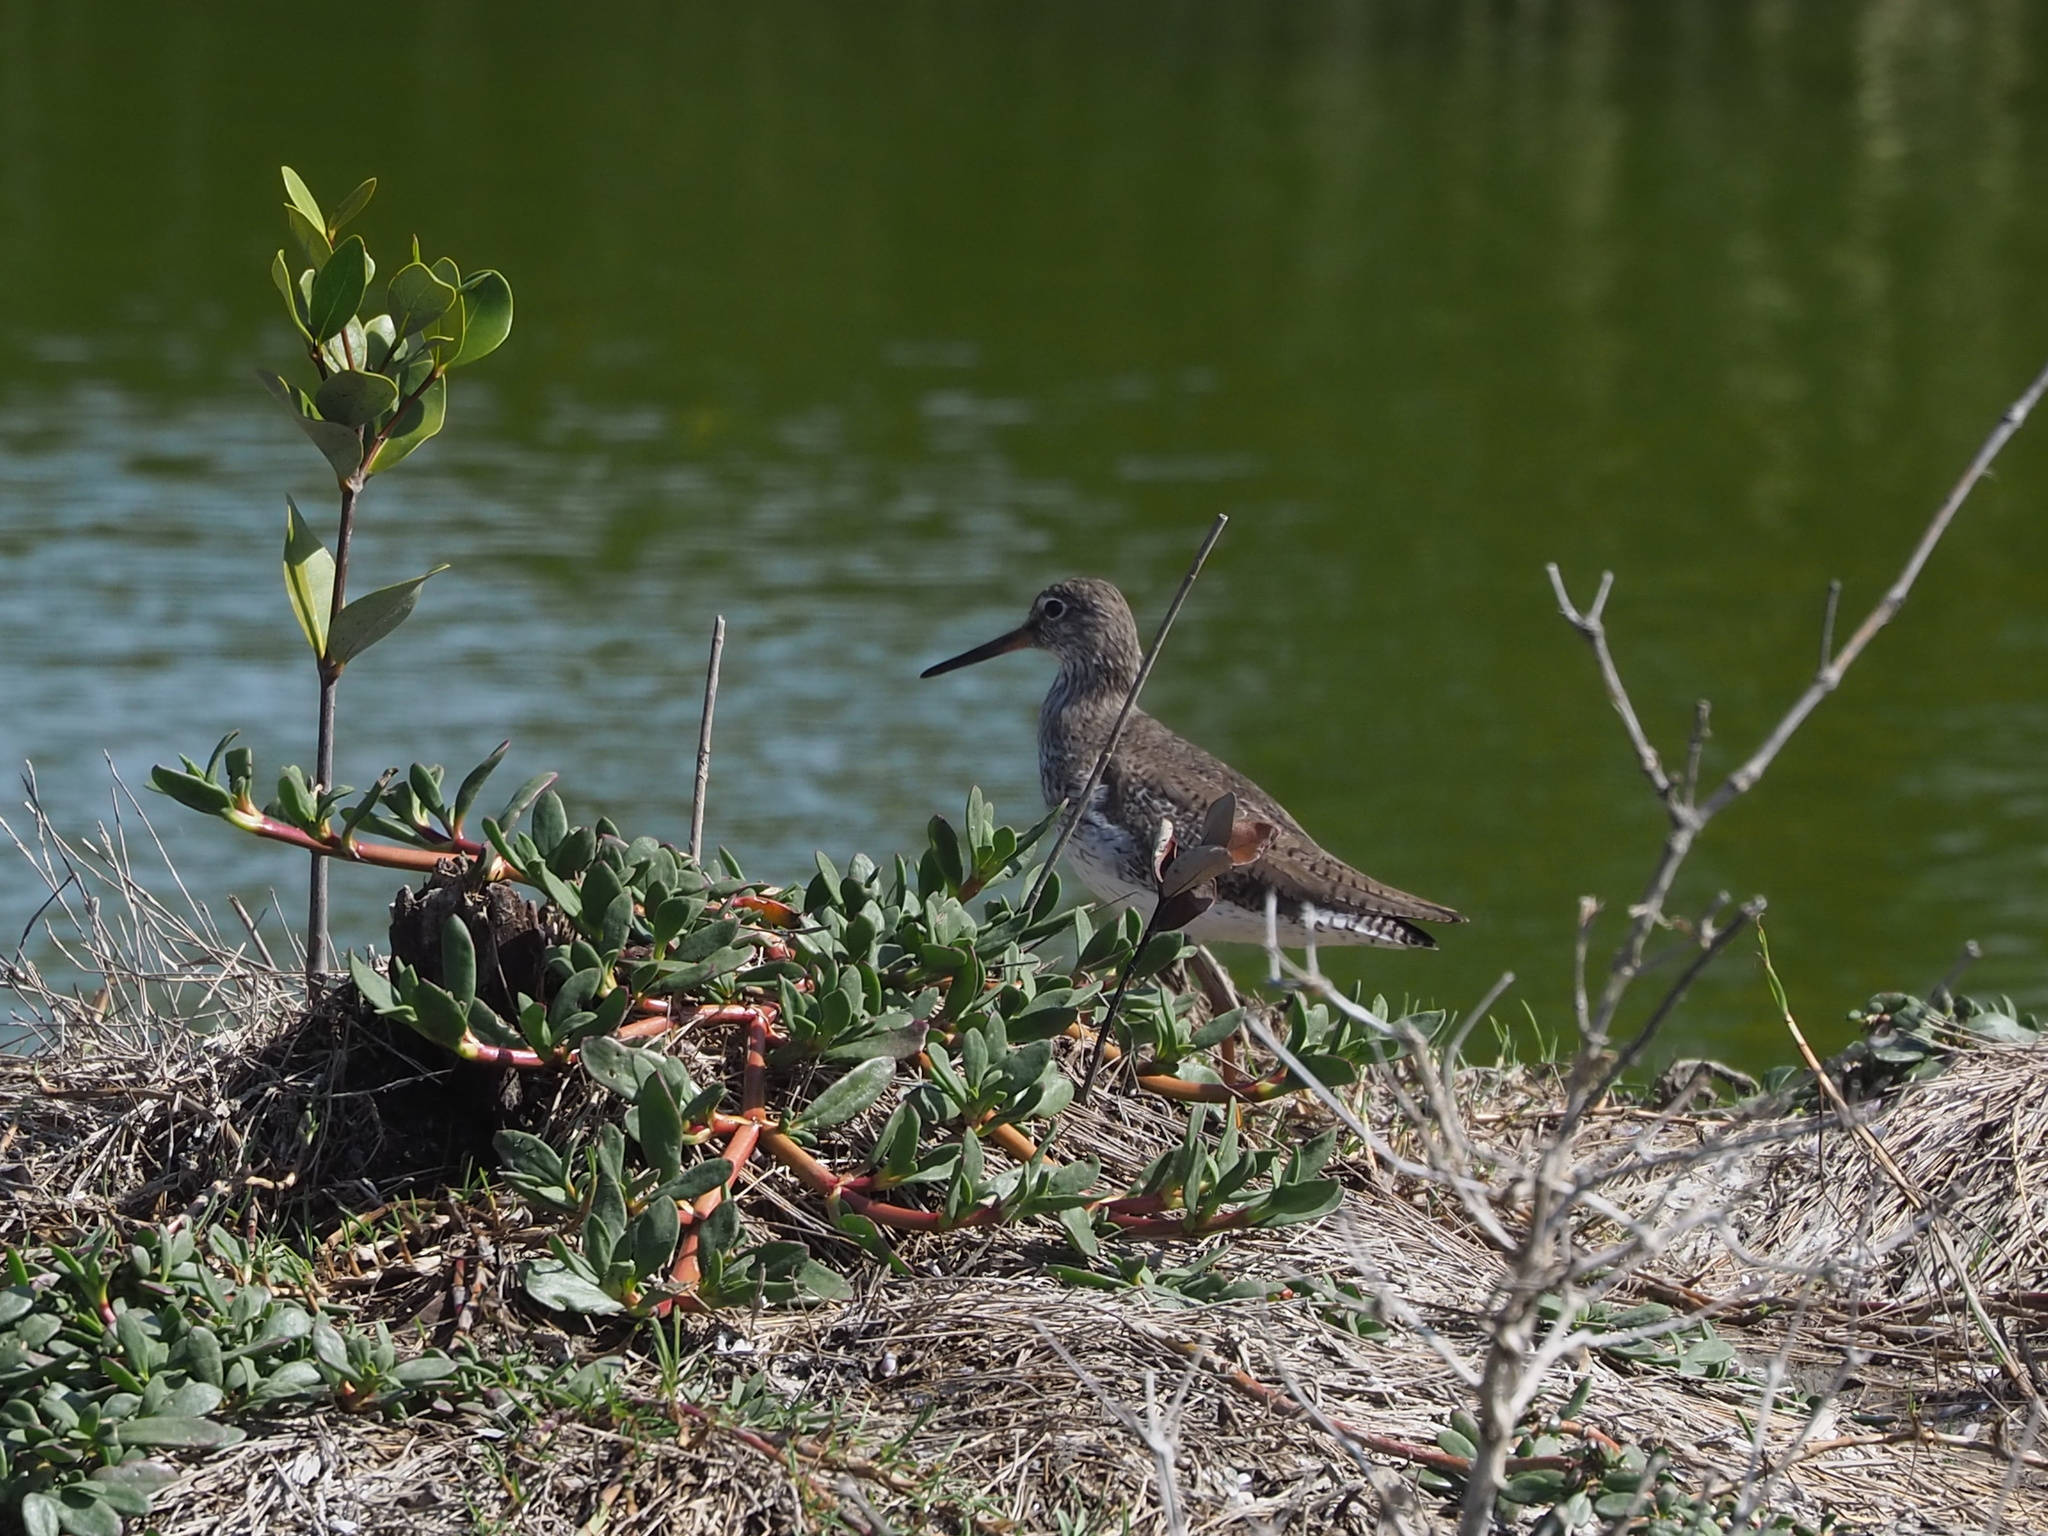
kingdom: Animalia
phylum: Chordata
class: Aves
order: Charadriiformes
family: Scolopacidae
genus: Tringa
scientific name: Tringa totanus
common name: Common redshank
